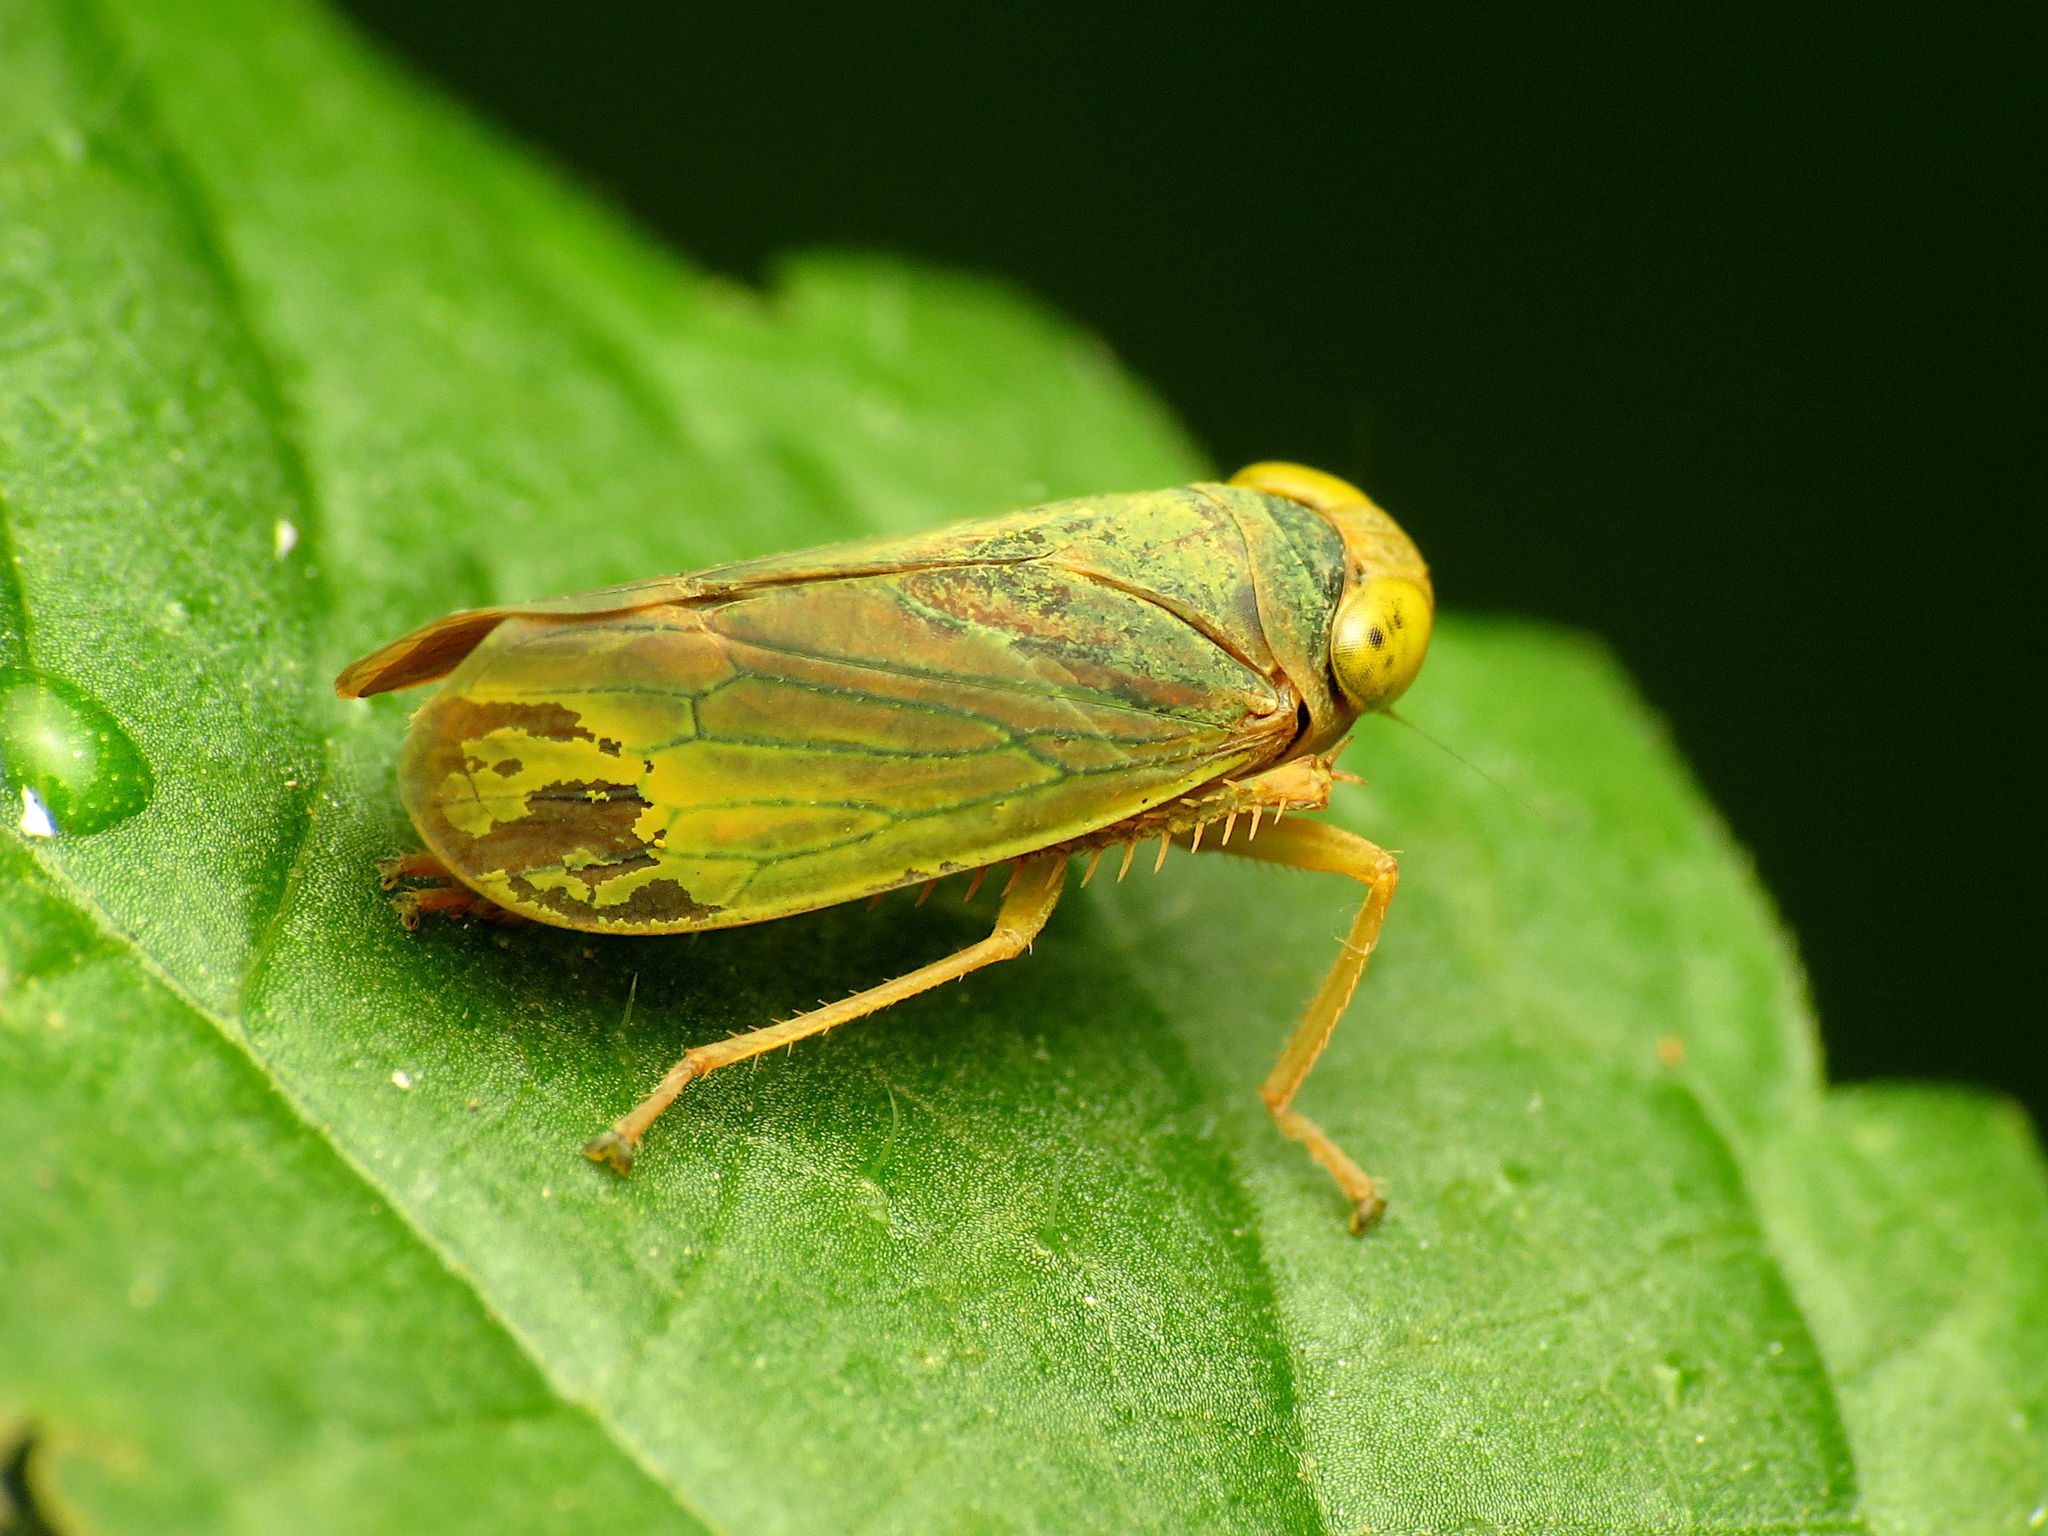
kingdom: Animalia
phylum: Arthropoda
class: Insecta
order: Hemiptera
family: Cicadellidae
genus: Jikradia
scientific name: Jikradia olitoria
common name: Coppery leafhopper
